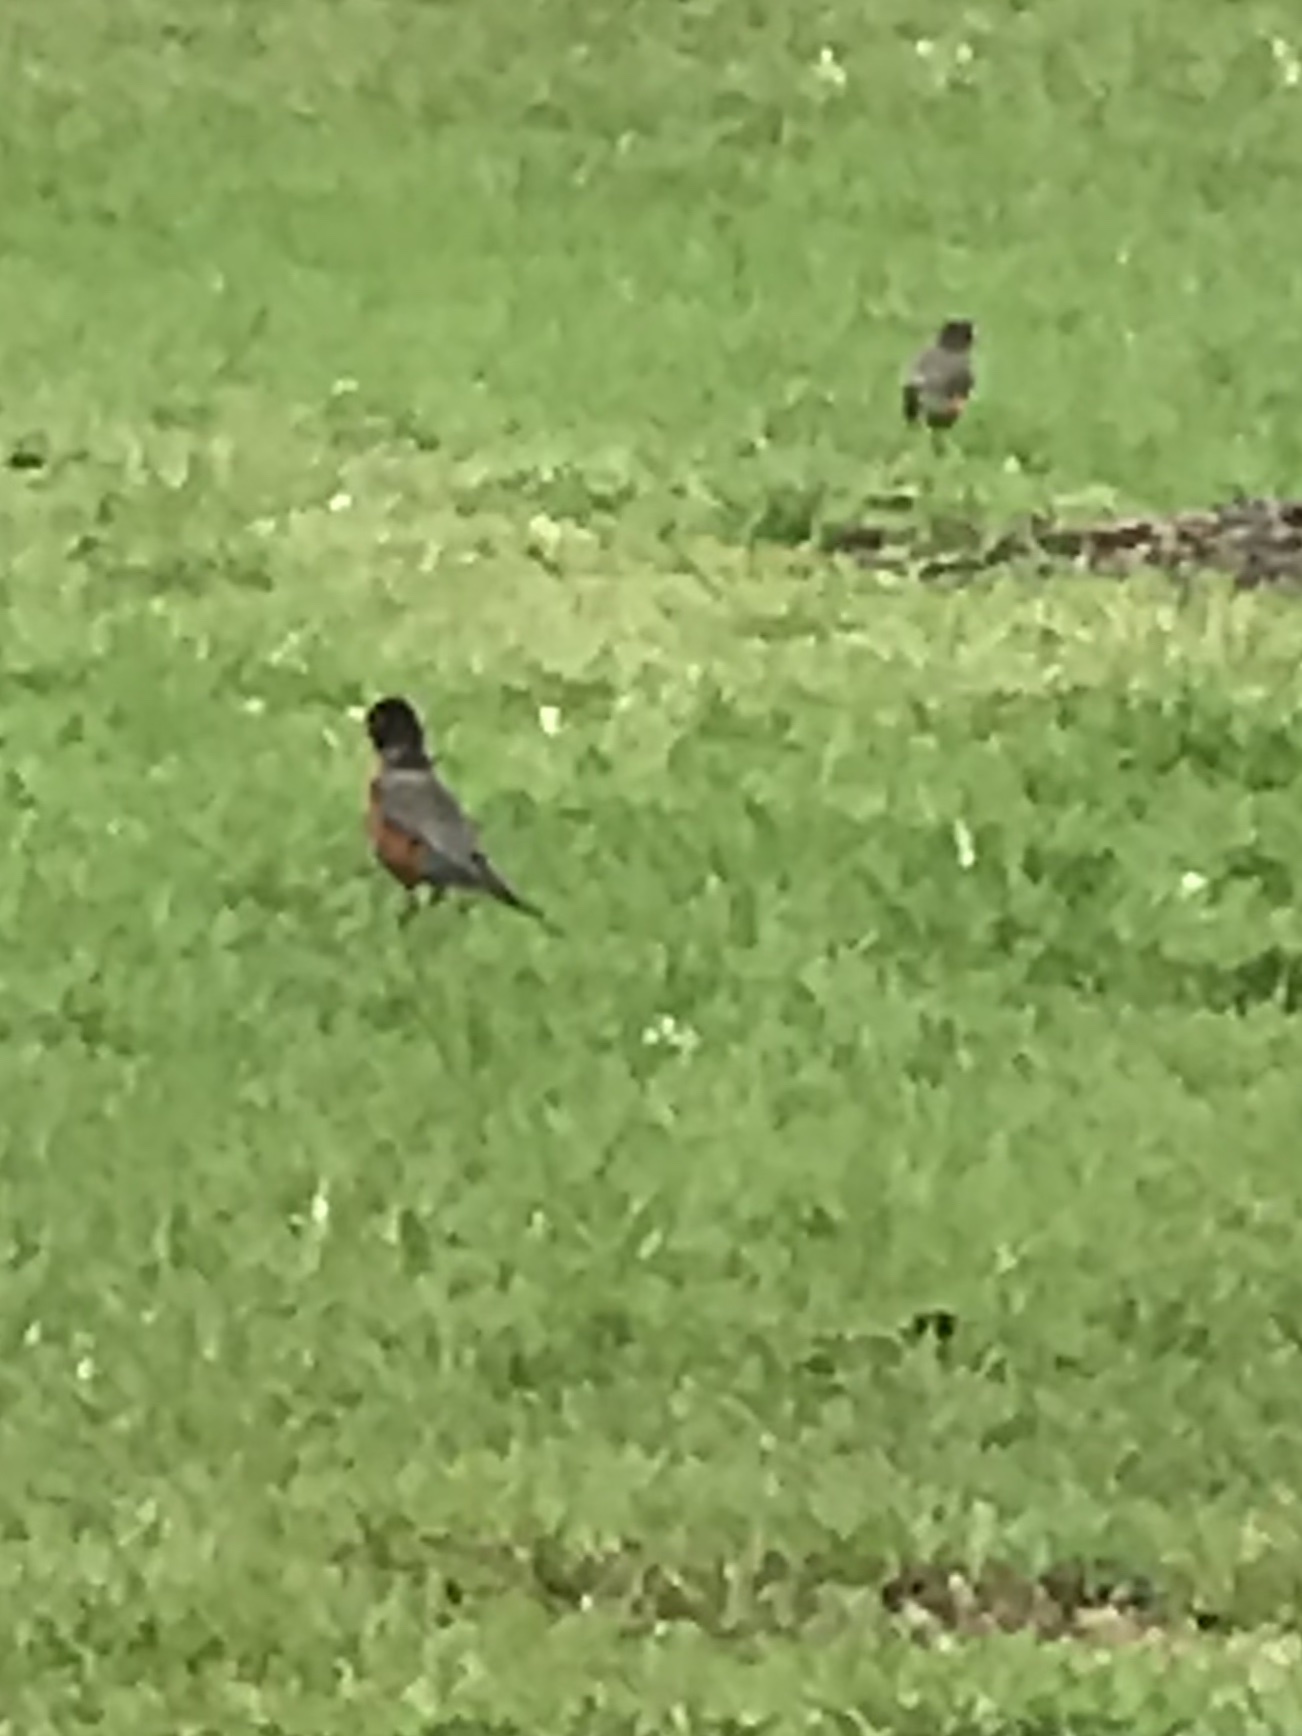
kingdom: Animalia
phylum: Chordata
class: Aves
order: Passeriformes
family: Turdidae
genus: Turdus
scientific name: Turdus migratorius
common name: American robin
